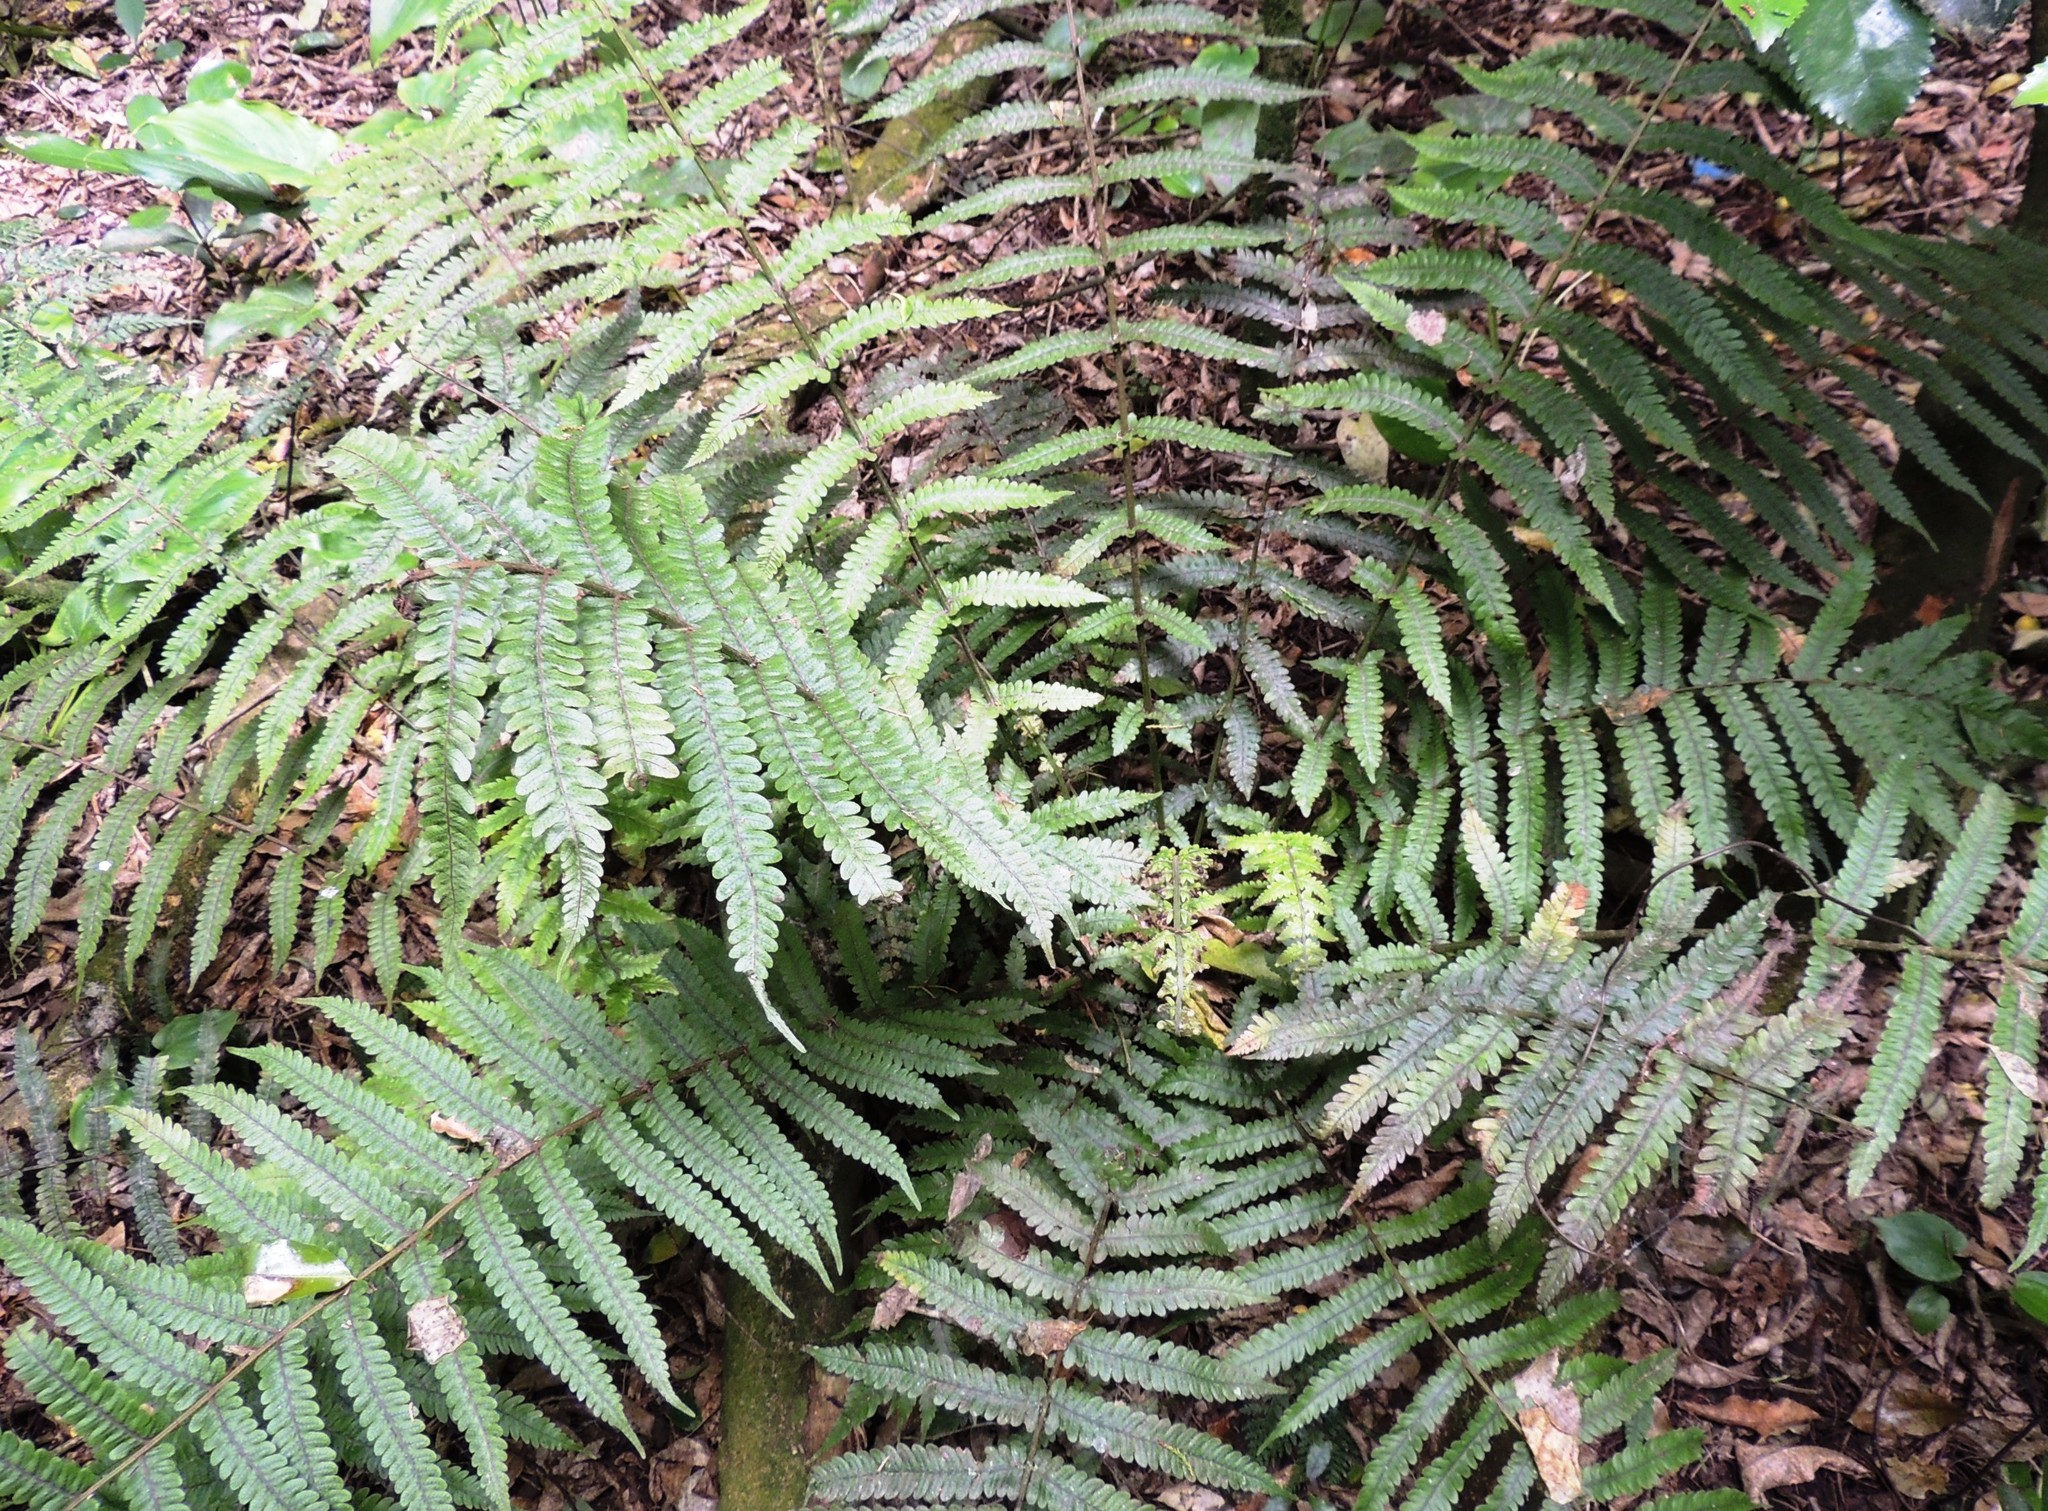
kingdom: Plantae
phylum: Tracheophyta
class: Polypodiopsida
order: Polypodiales
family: Thelypteridaceae
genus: Pakau
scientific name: Pakau pennigera
